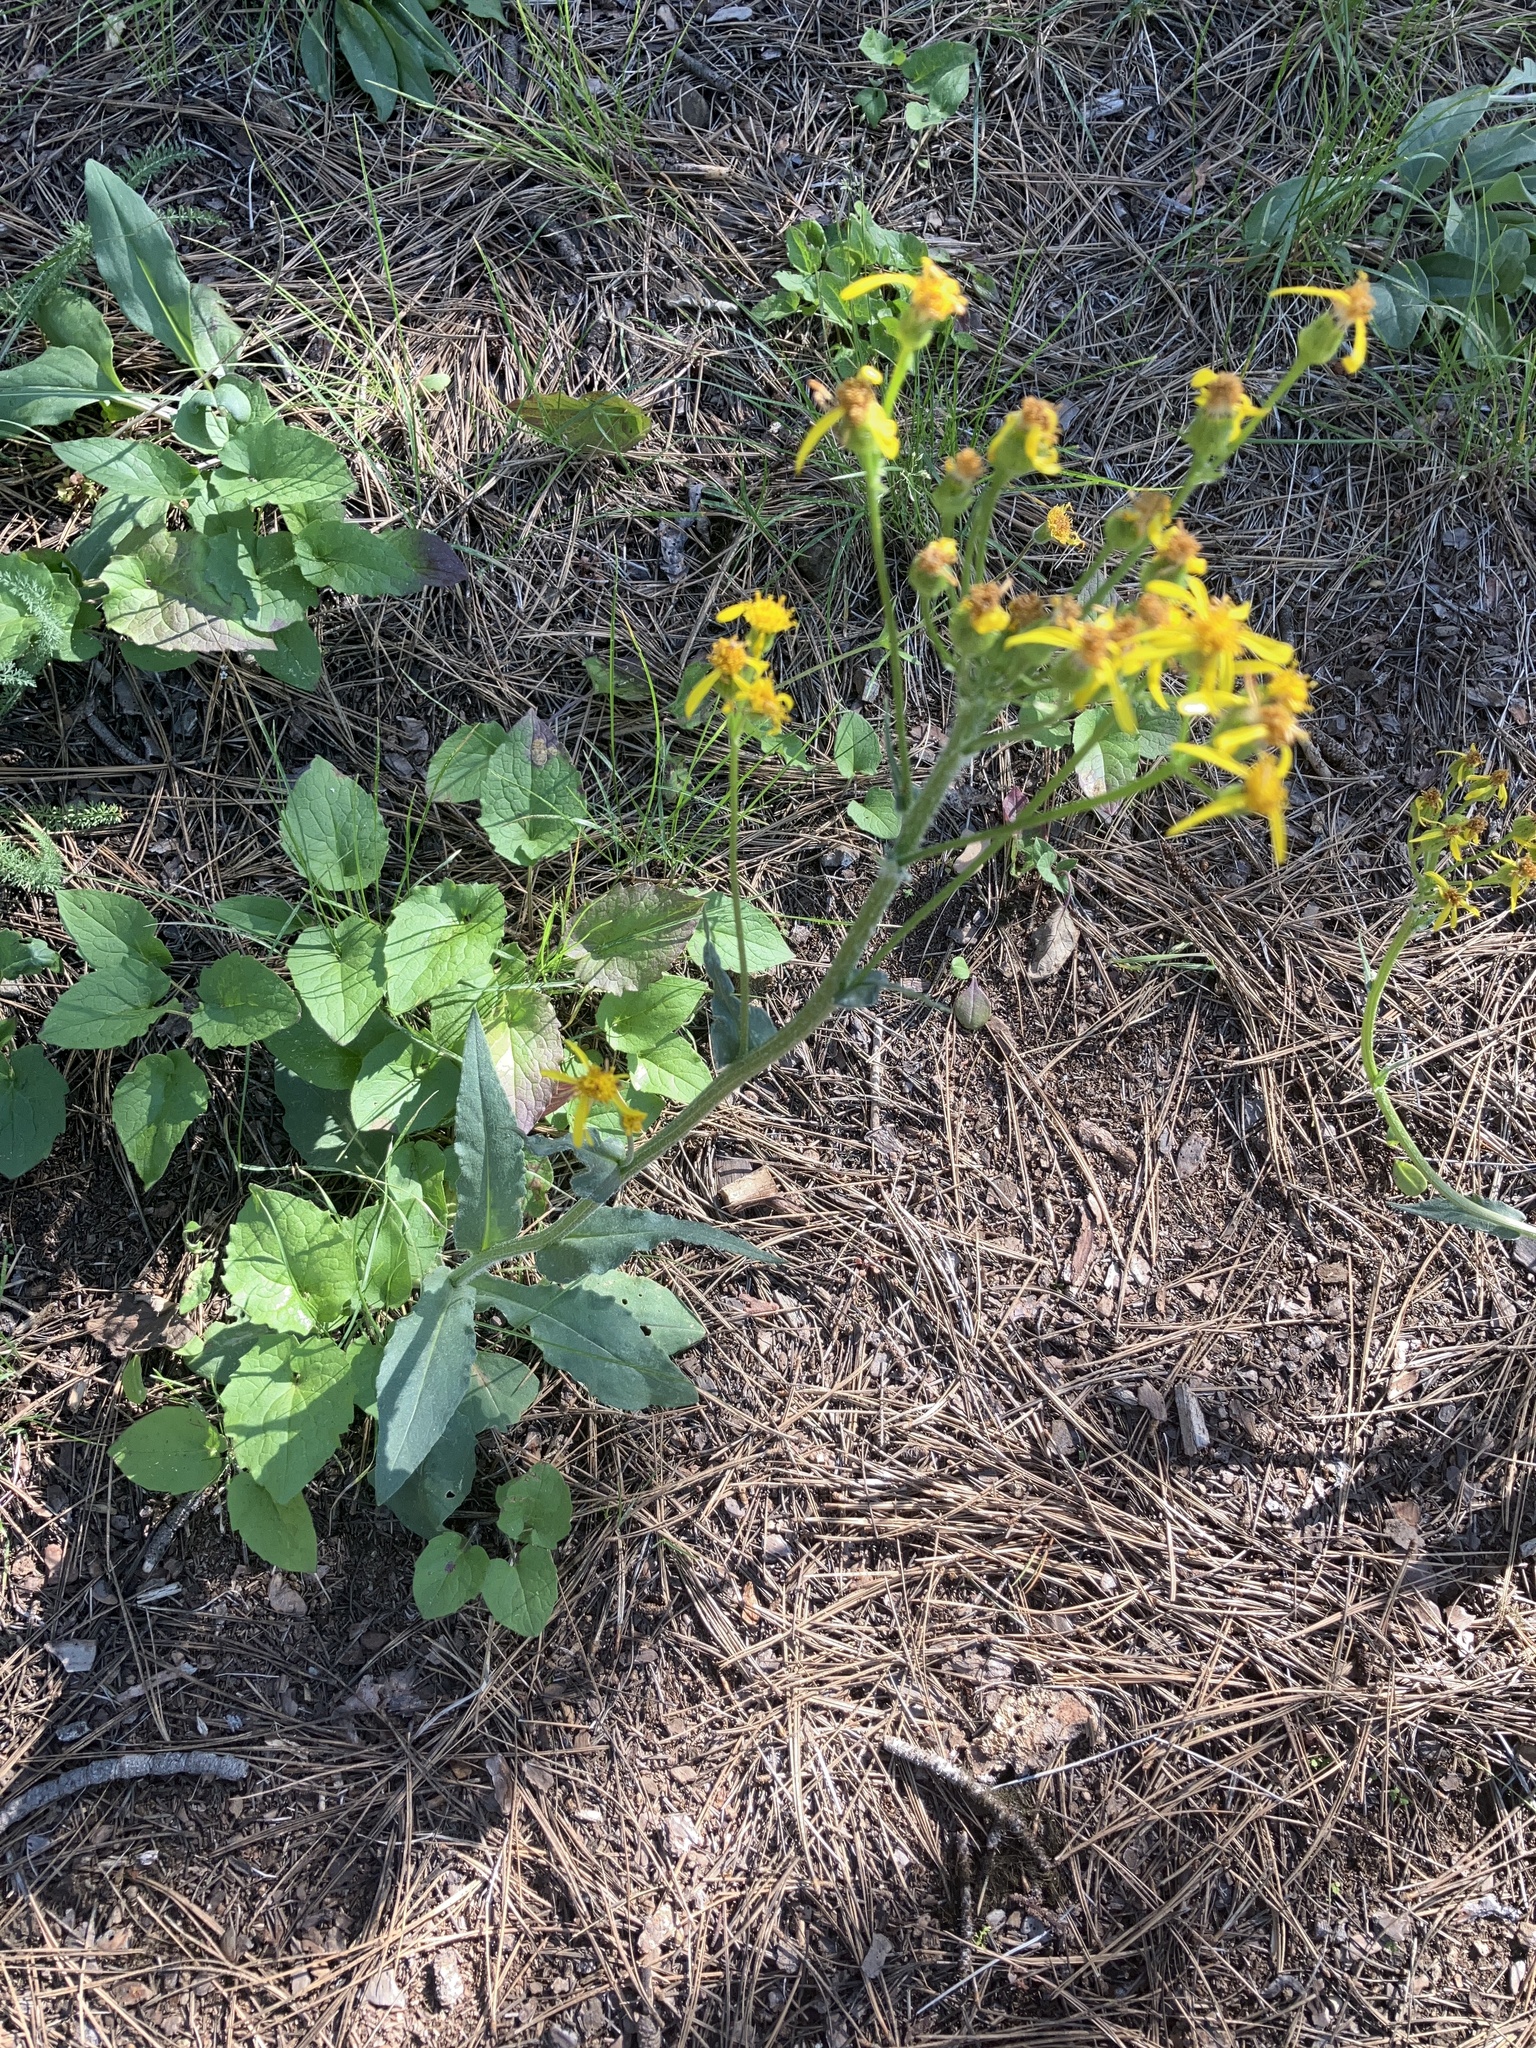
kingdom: Plantae
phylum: Tracheophyta
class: Magnoliopsida
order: Asterales
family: Asteraceae
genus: Senecio
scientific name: Senecio integerrimus
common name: Gaugeplant
